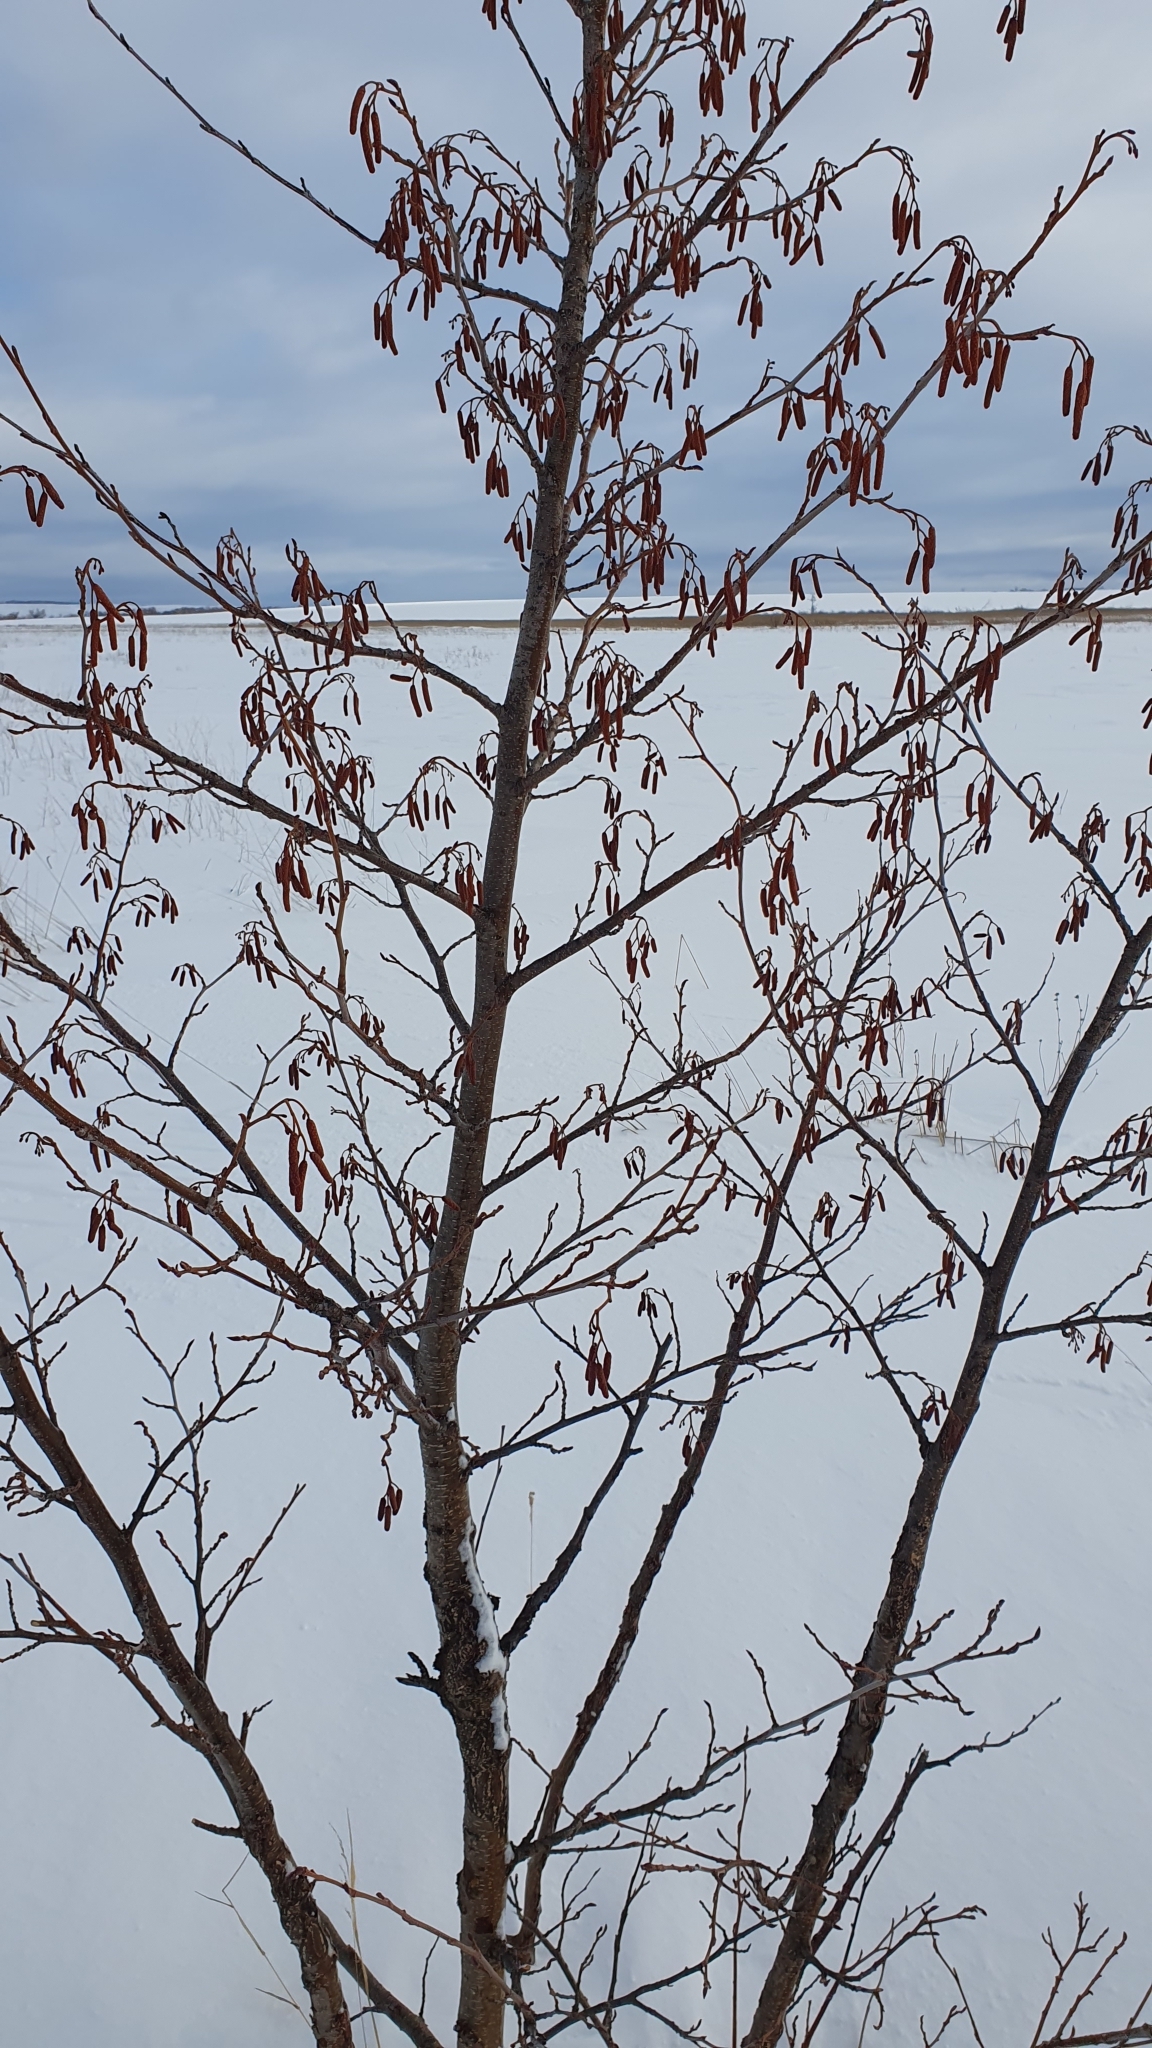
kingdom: Plantae
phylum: Tracheophyta
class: Magnoliopsida
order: Fagales
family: Betulaceae
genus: Alnus
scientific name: Alnus glutinosa
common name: Black alder
